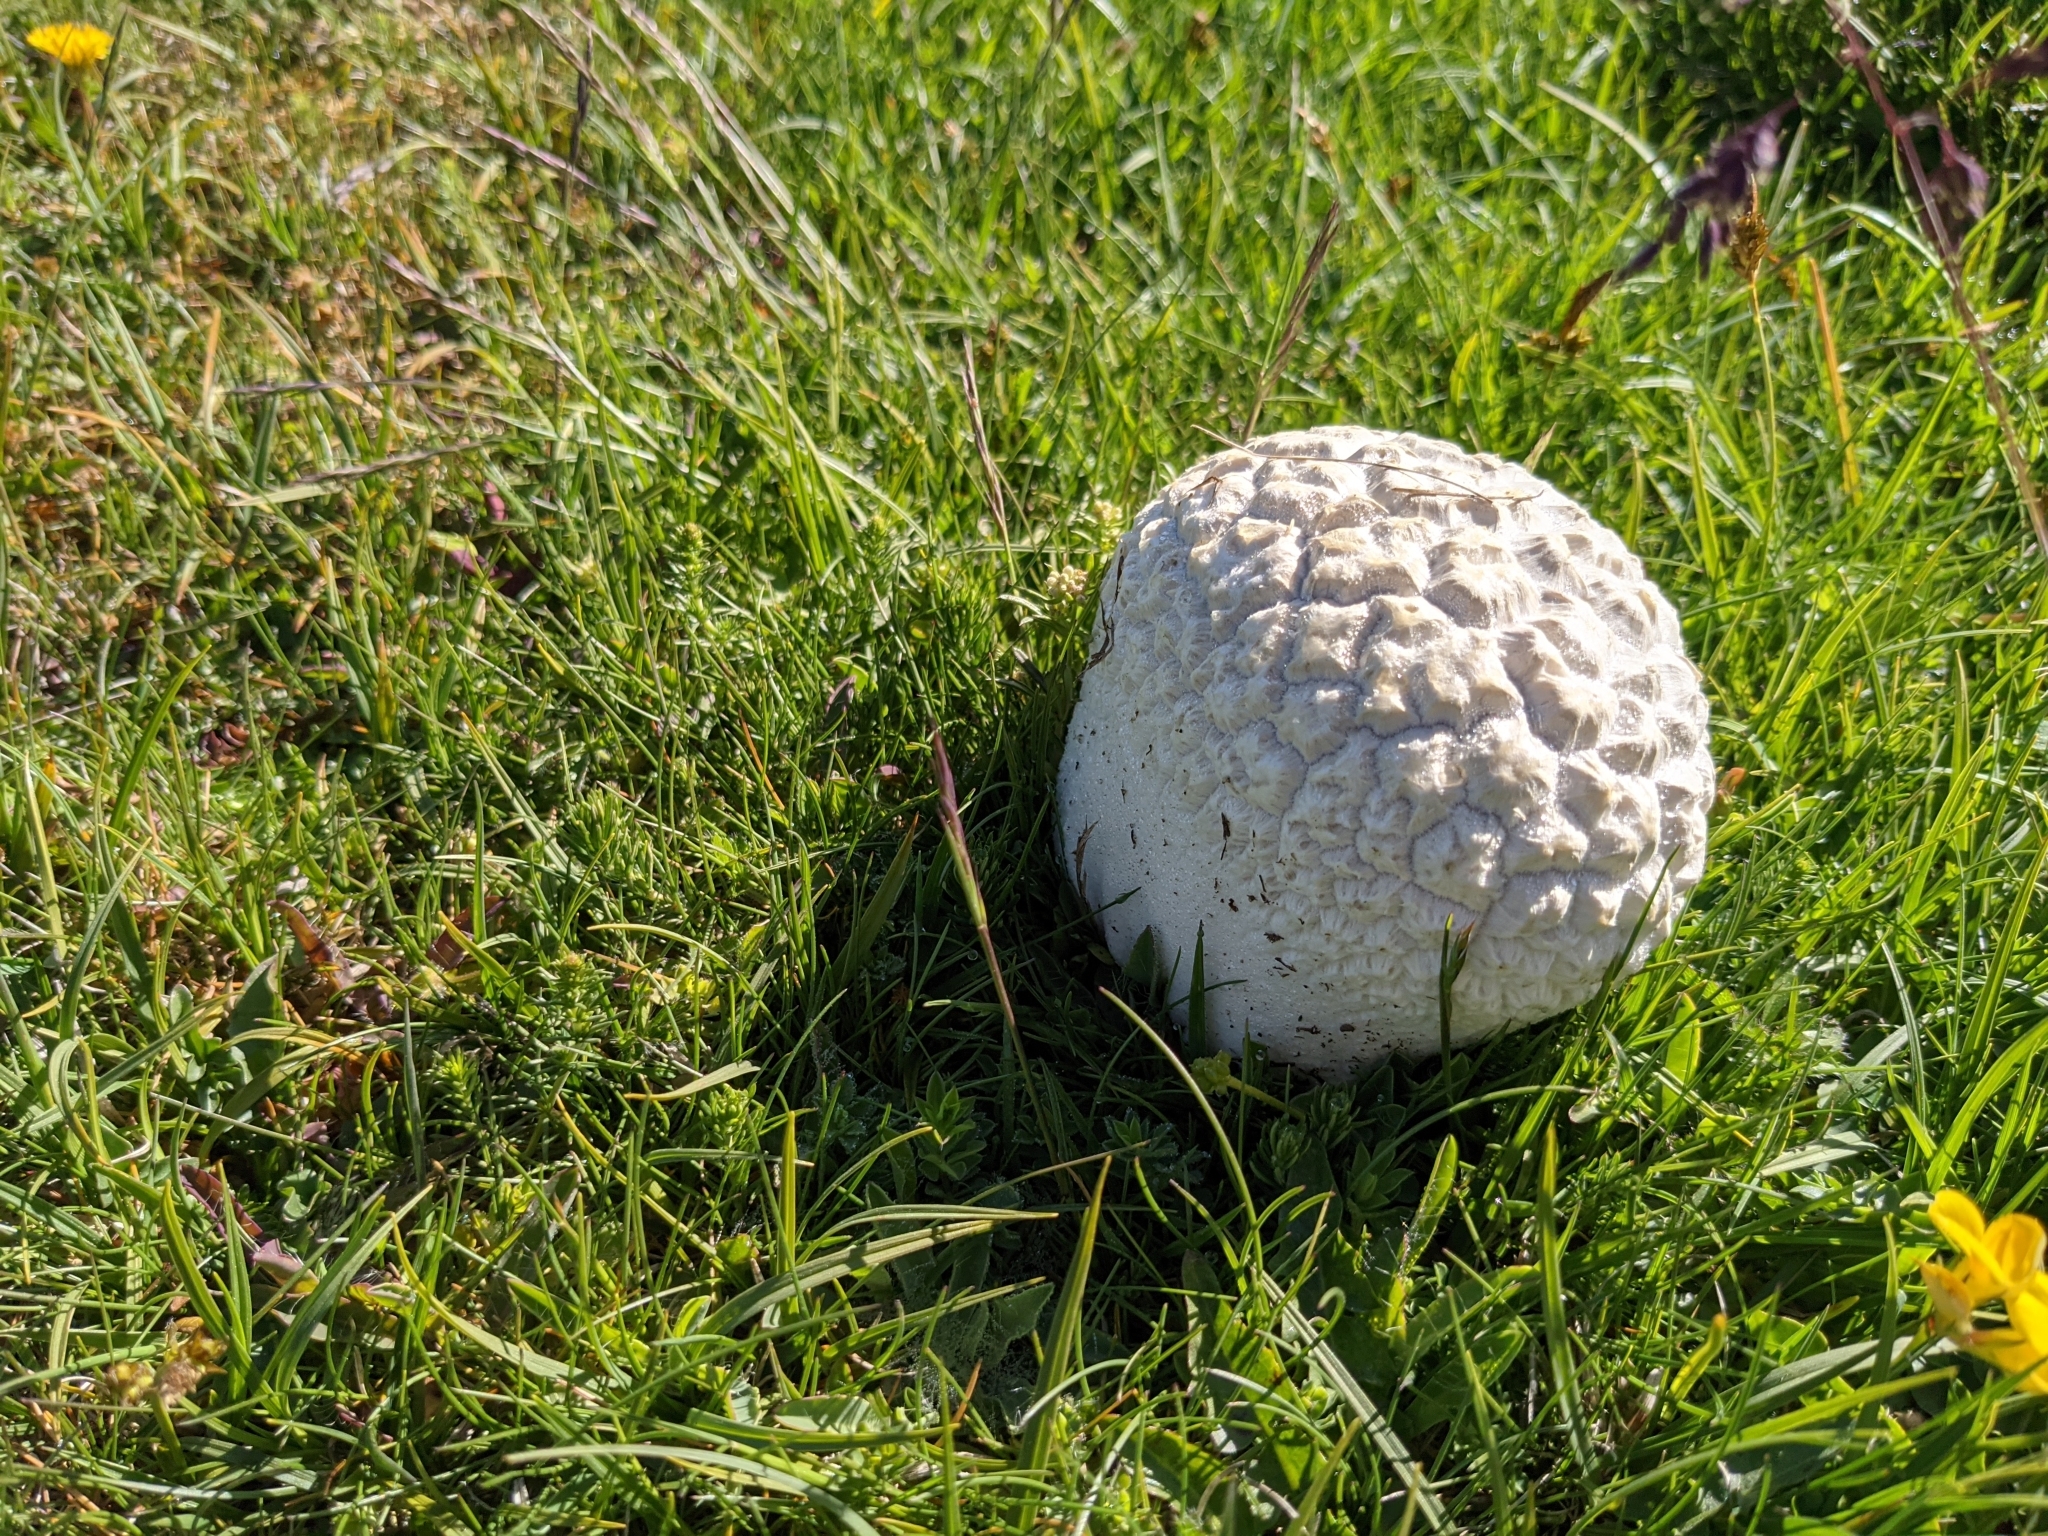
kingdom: Fungi
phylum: Basidiomycota
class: Agaricomycetes
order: Agaricales
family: Lycoperdaceae
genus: Bovistella
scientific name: Bovistella utriformis
